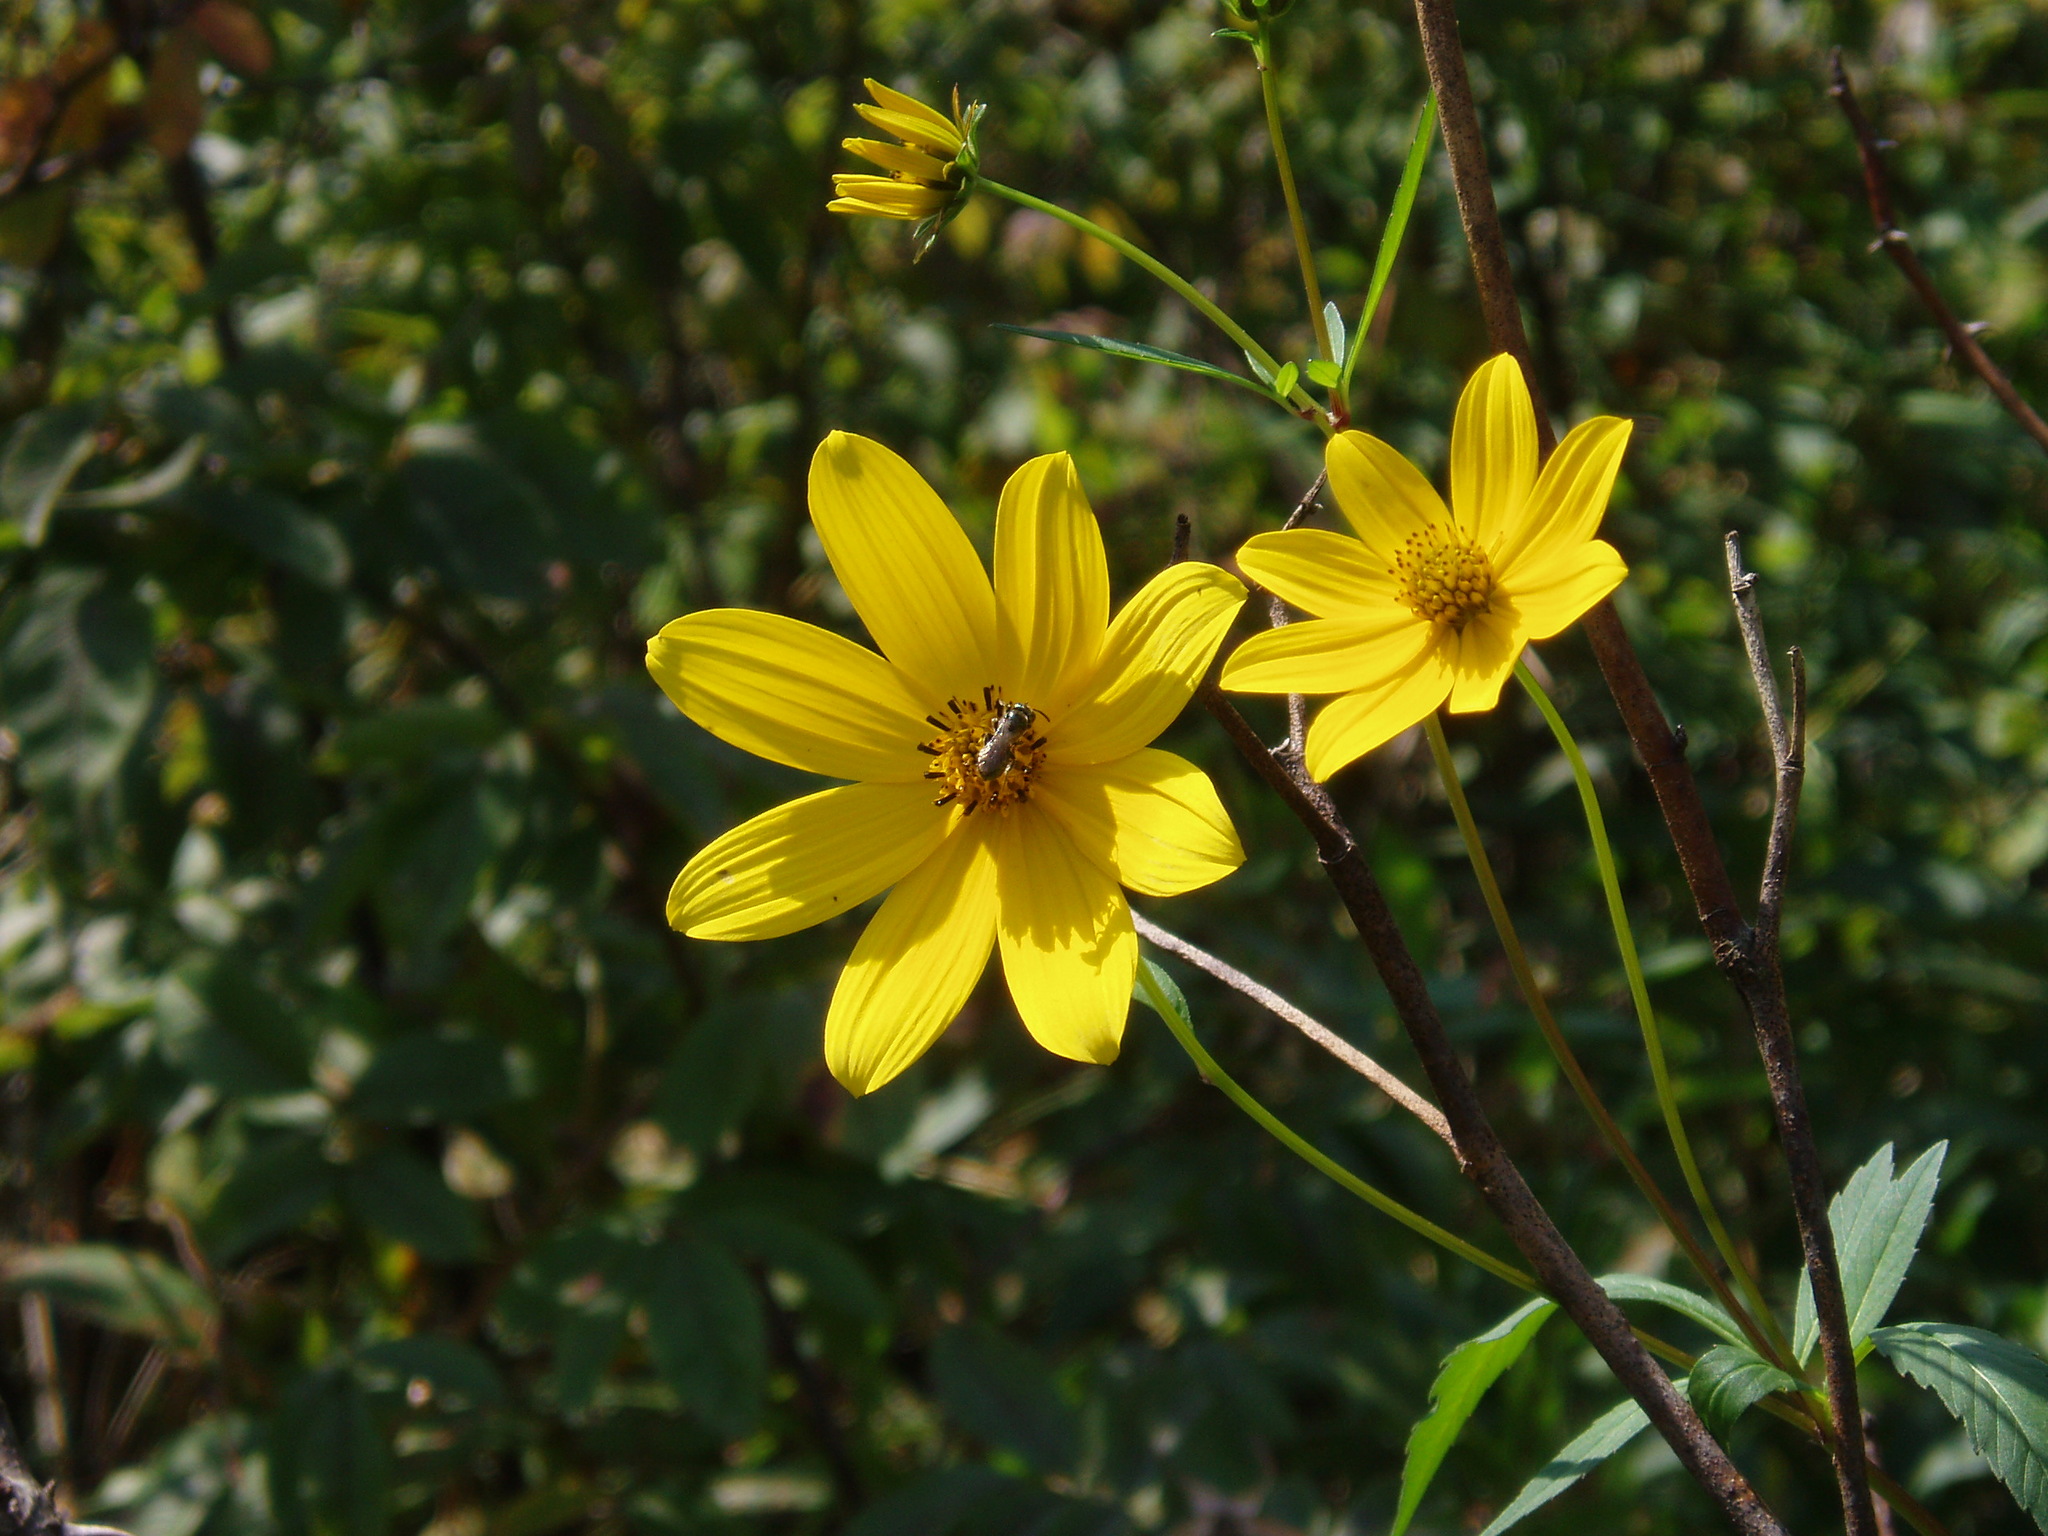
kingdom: Plantae
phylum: Tracheophyta
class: Magnoliopsida
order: Asterales
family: Asteraceae
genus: Bidens
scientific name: Bidens aristosa
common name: Western tickseed
